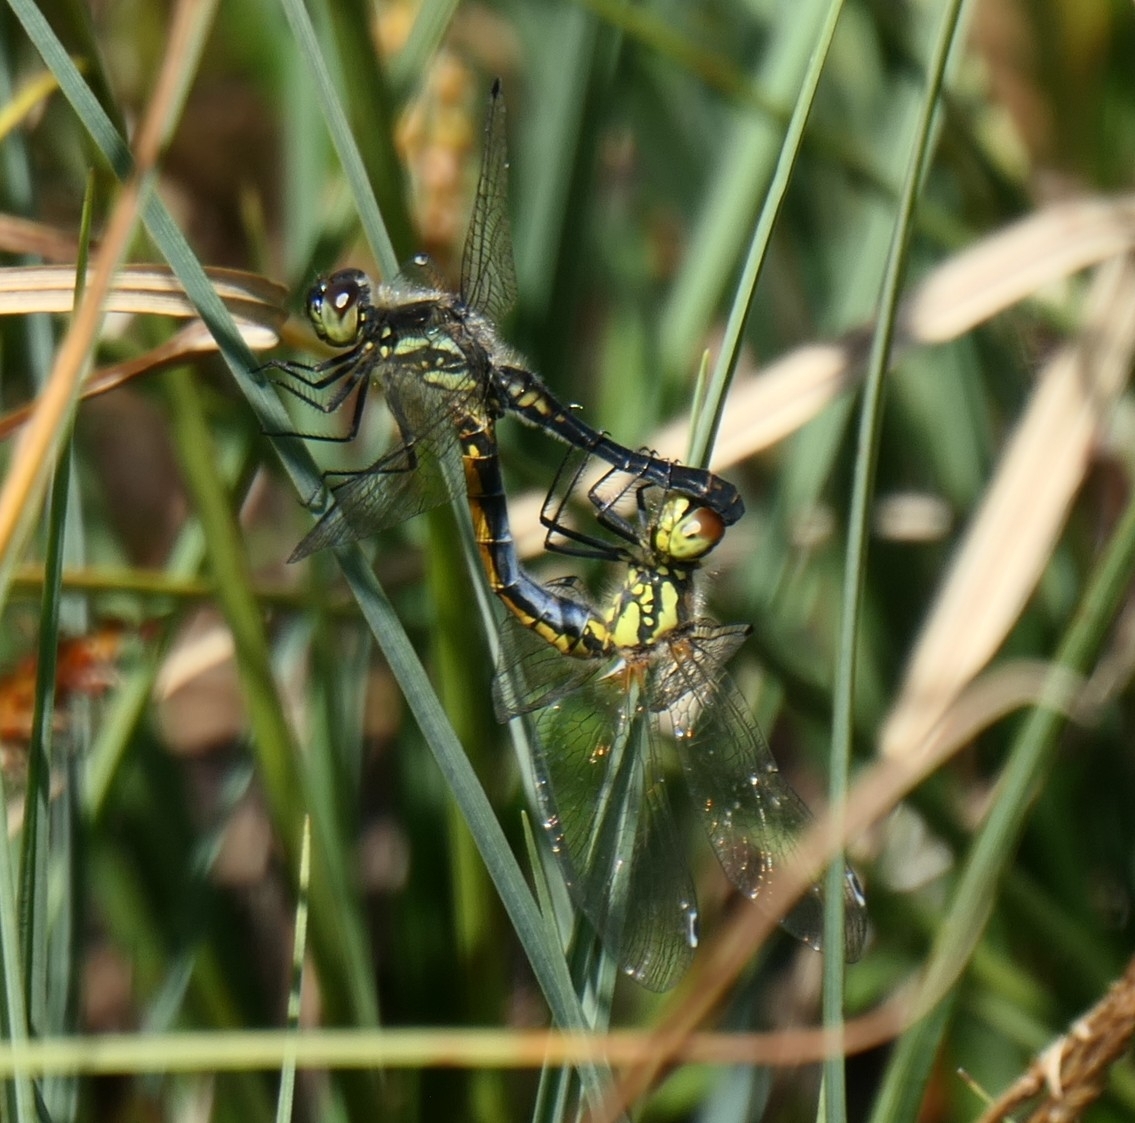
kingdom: Animalia
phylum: Arthropoda
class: Insecta
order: Odonata
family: Libellulidae
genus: Sympetrum
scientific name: Sympetrum danae
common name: Black darter
